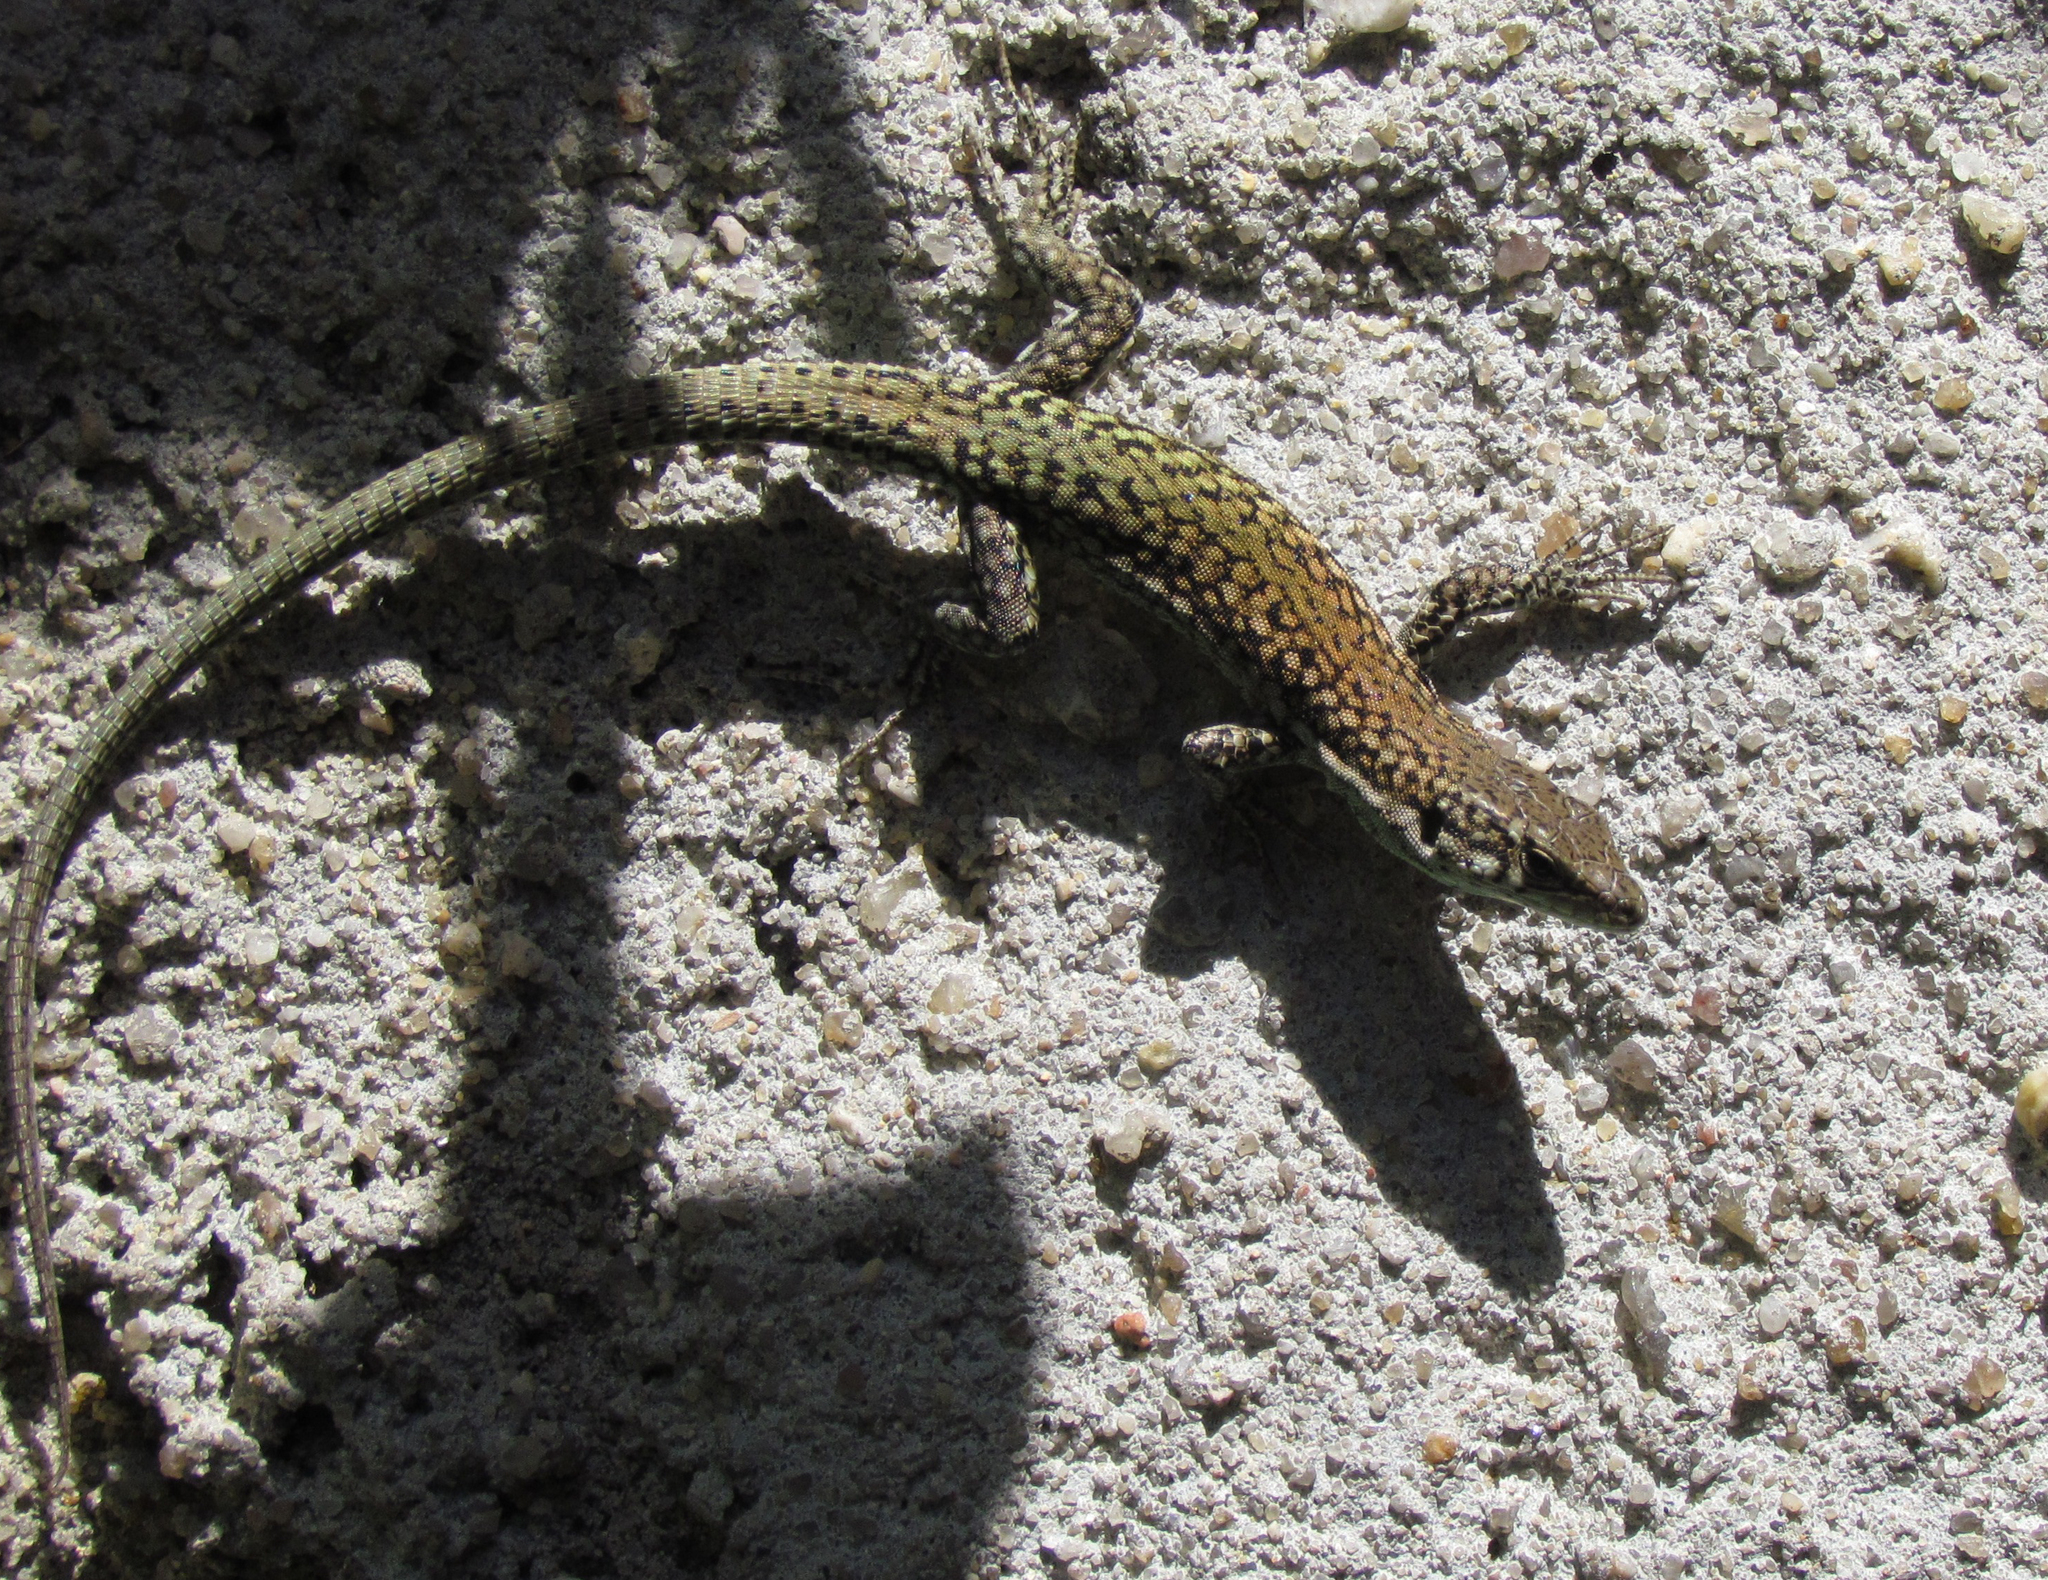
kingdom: Animalia
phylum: Chordata
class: Squamata
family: Lacertidae
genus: Podarcis
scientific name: Podarcis virescens
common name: Geniez’s wall lizard
